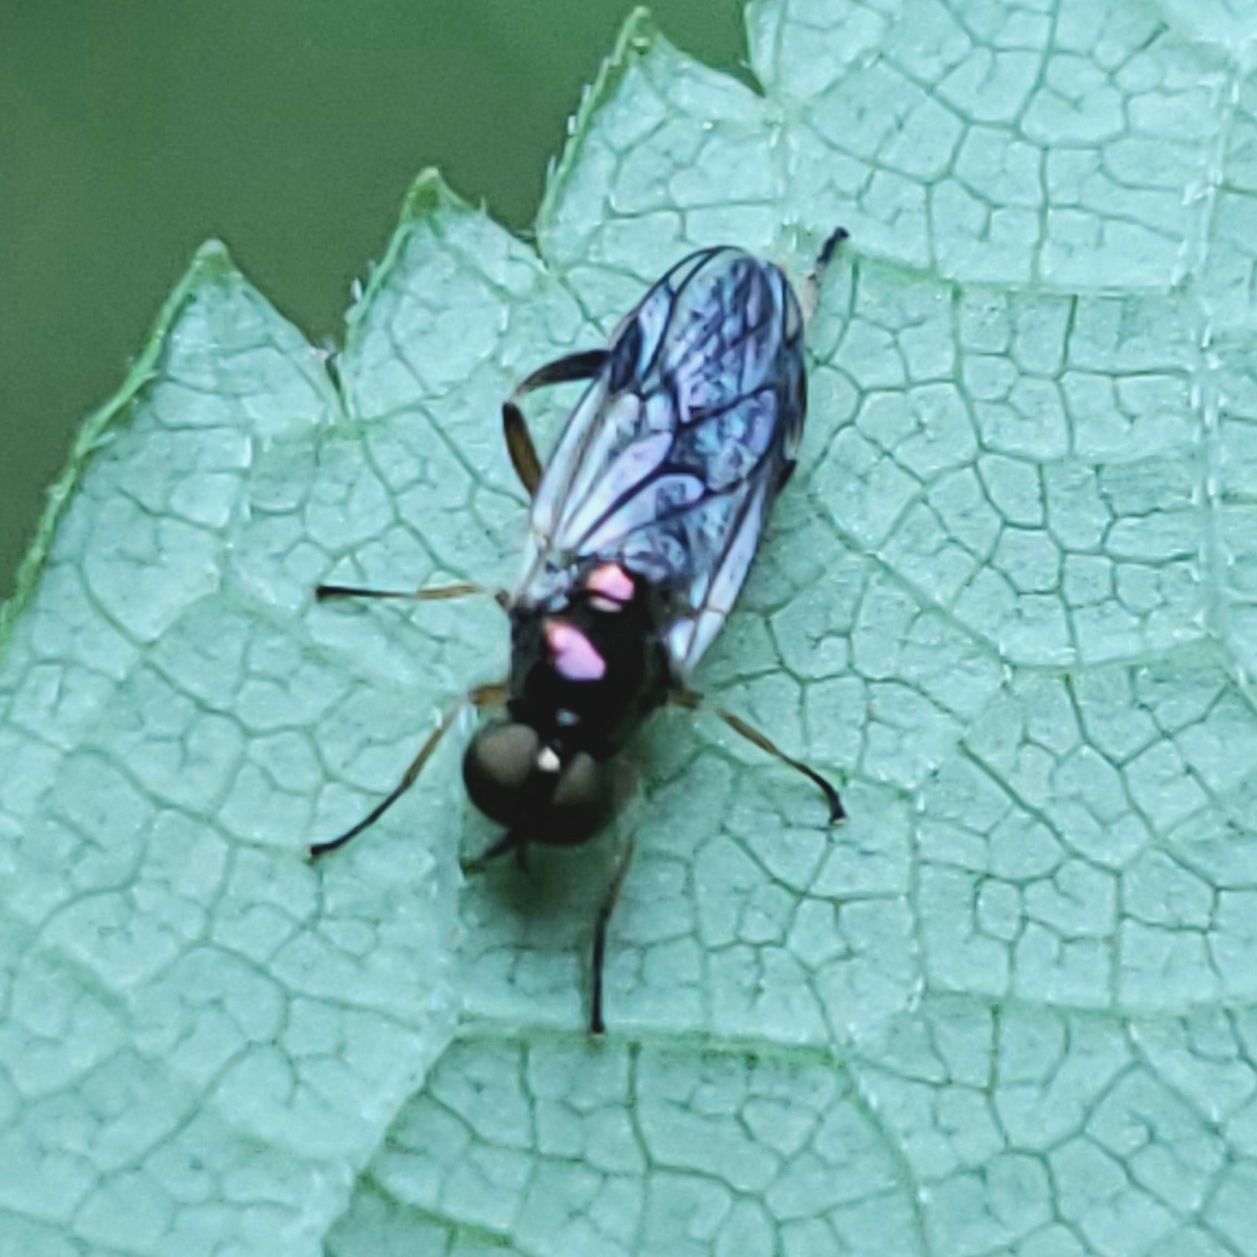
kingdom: Animalia
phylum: Arthropoda
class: Insecta
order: Diptera
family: Stratiomyidae
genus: Actina
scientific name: Actina viridis
